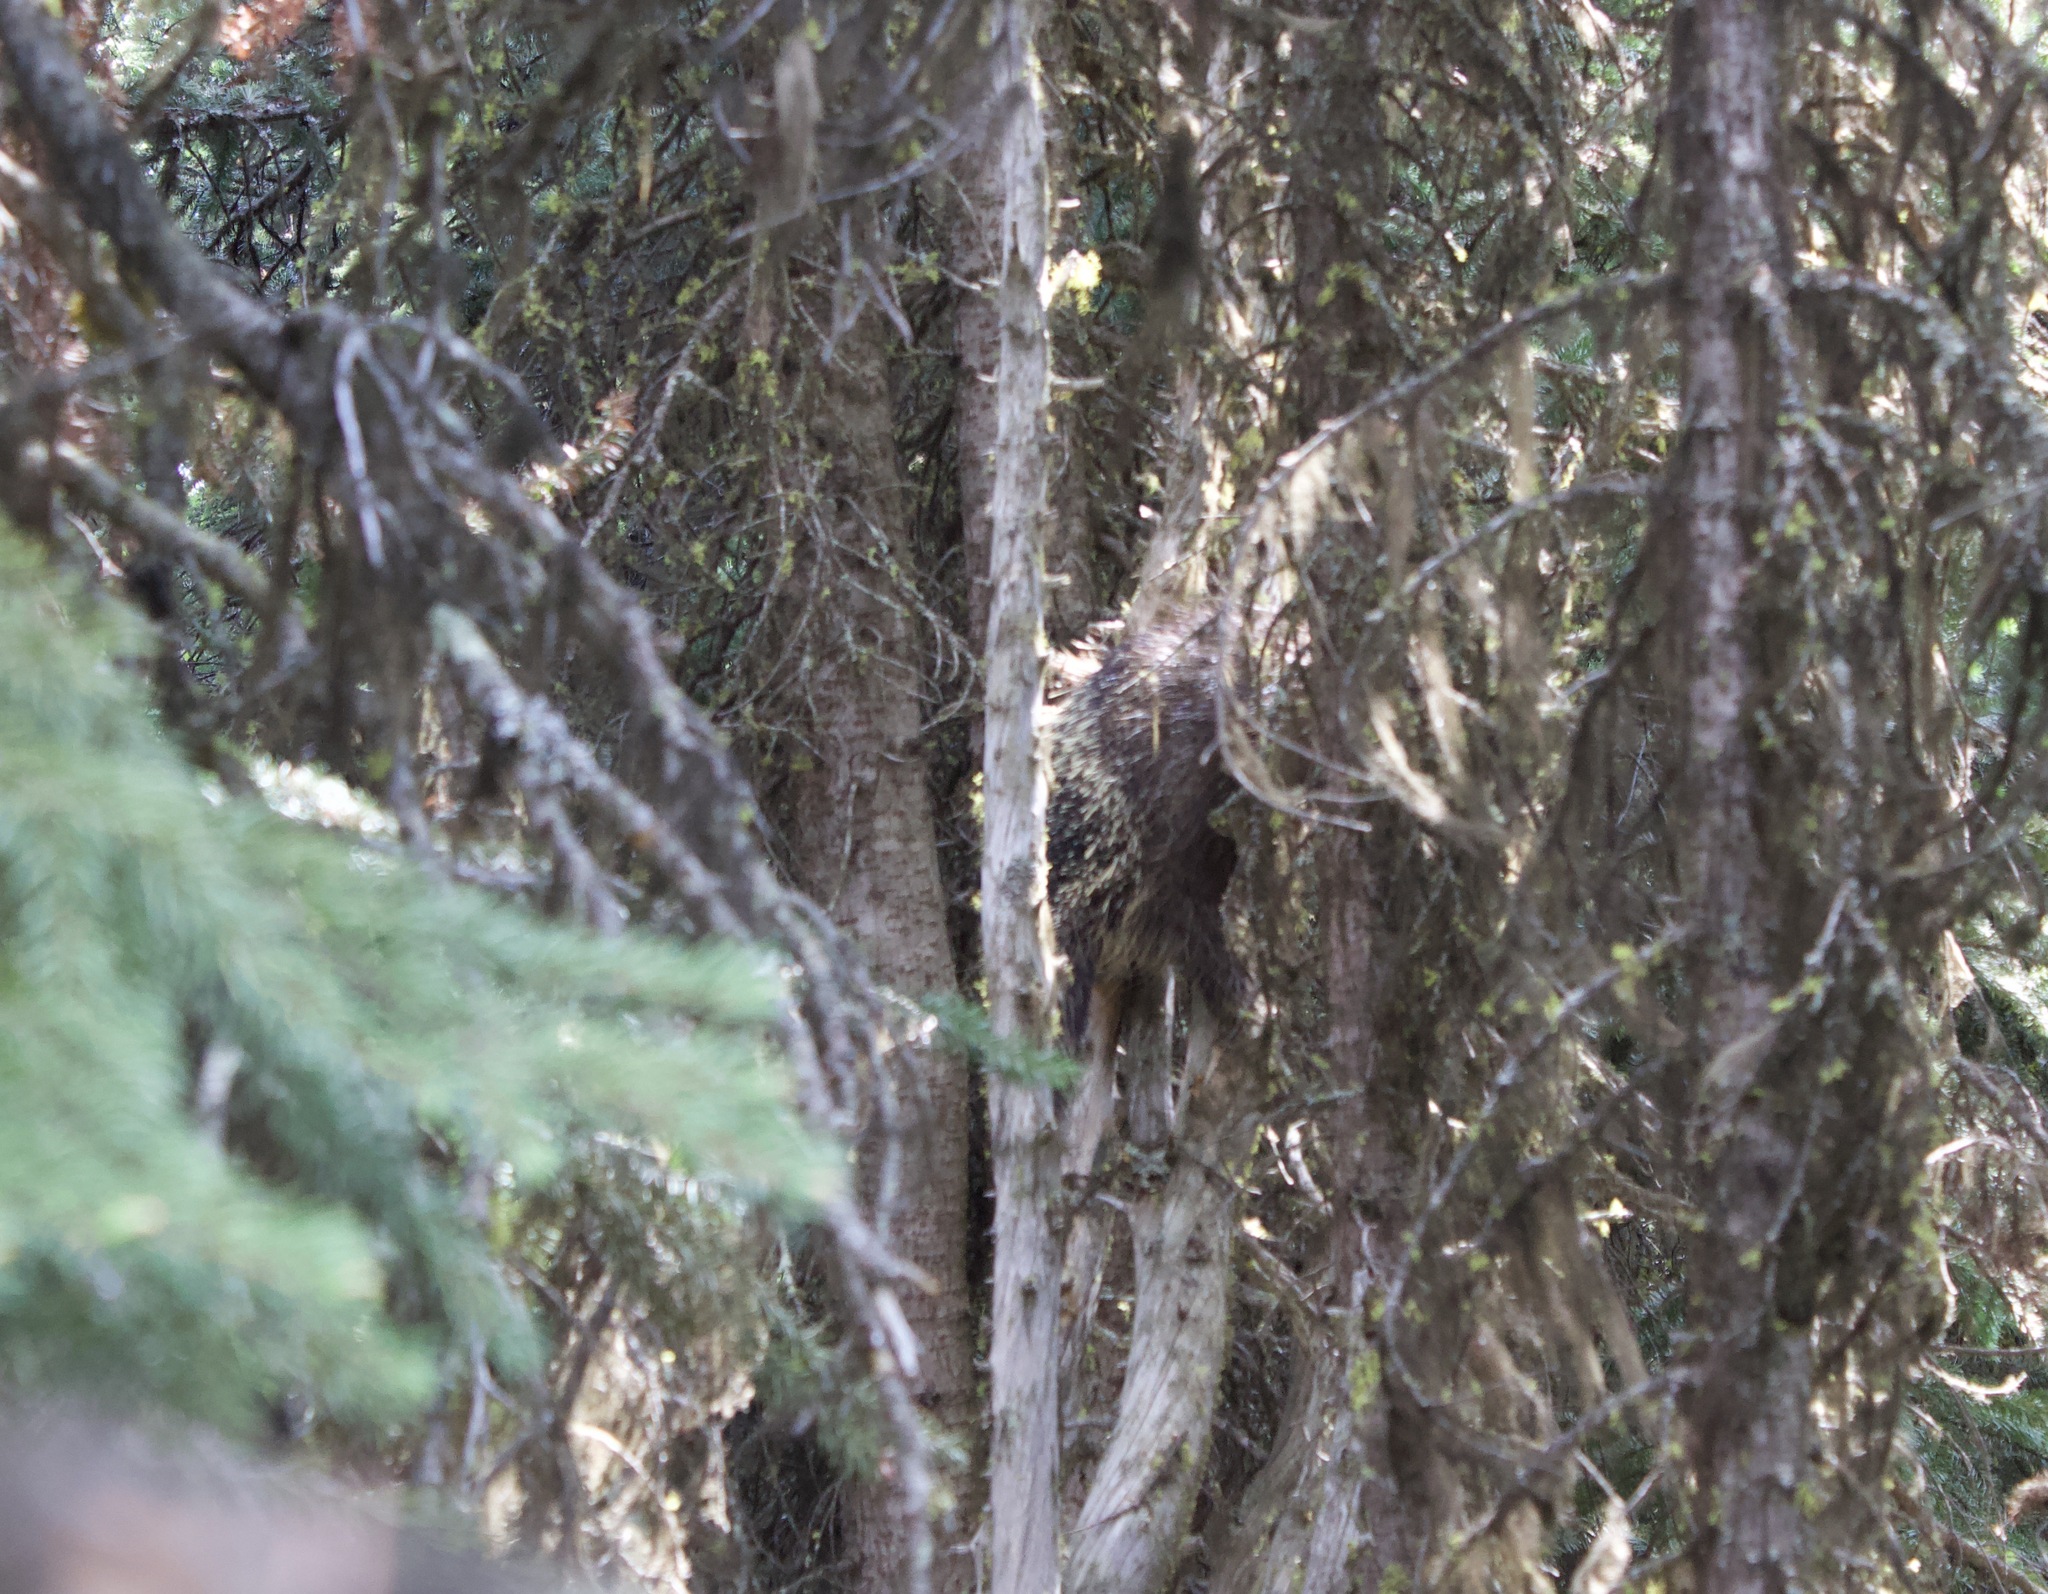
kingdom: Animalia
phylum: Chordata
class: Mammalia
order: Rodentia
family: Erethizontidae
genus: Erethizon
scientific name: Erethizon dorsatus
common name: North american porcupine
